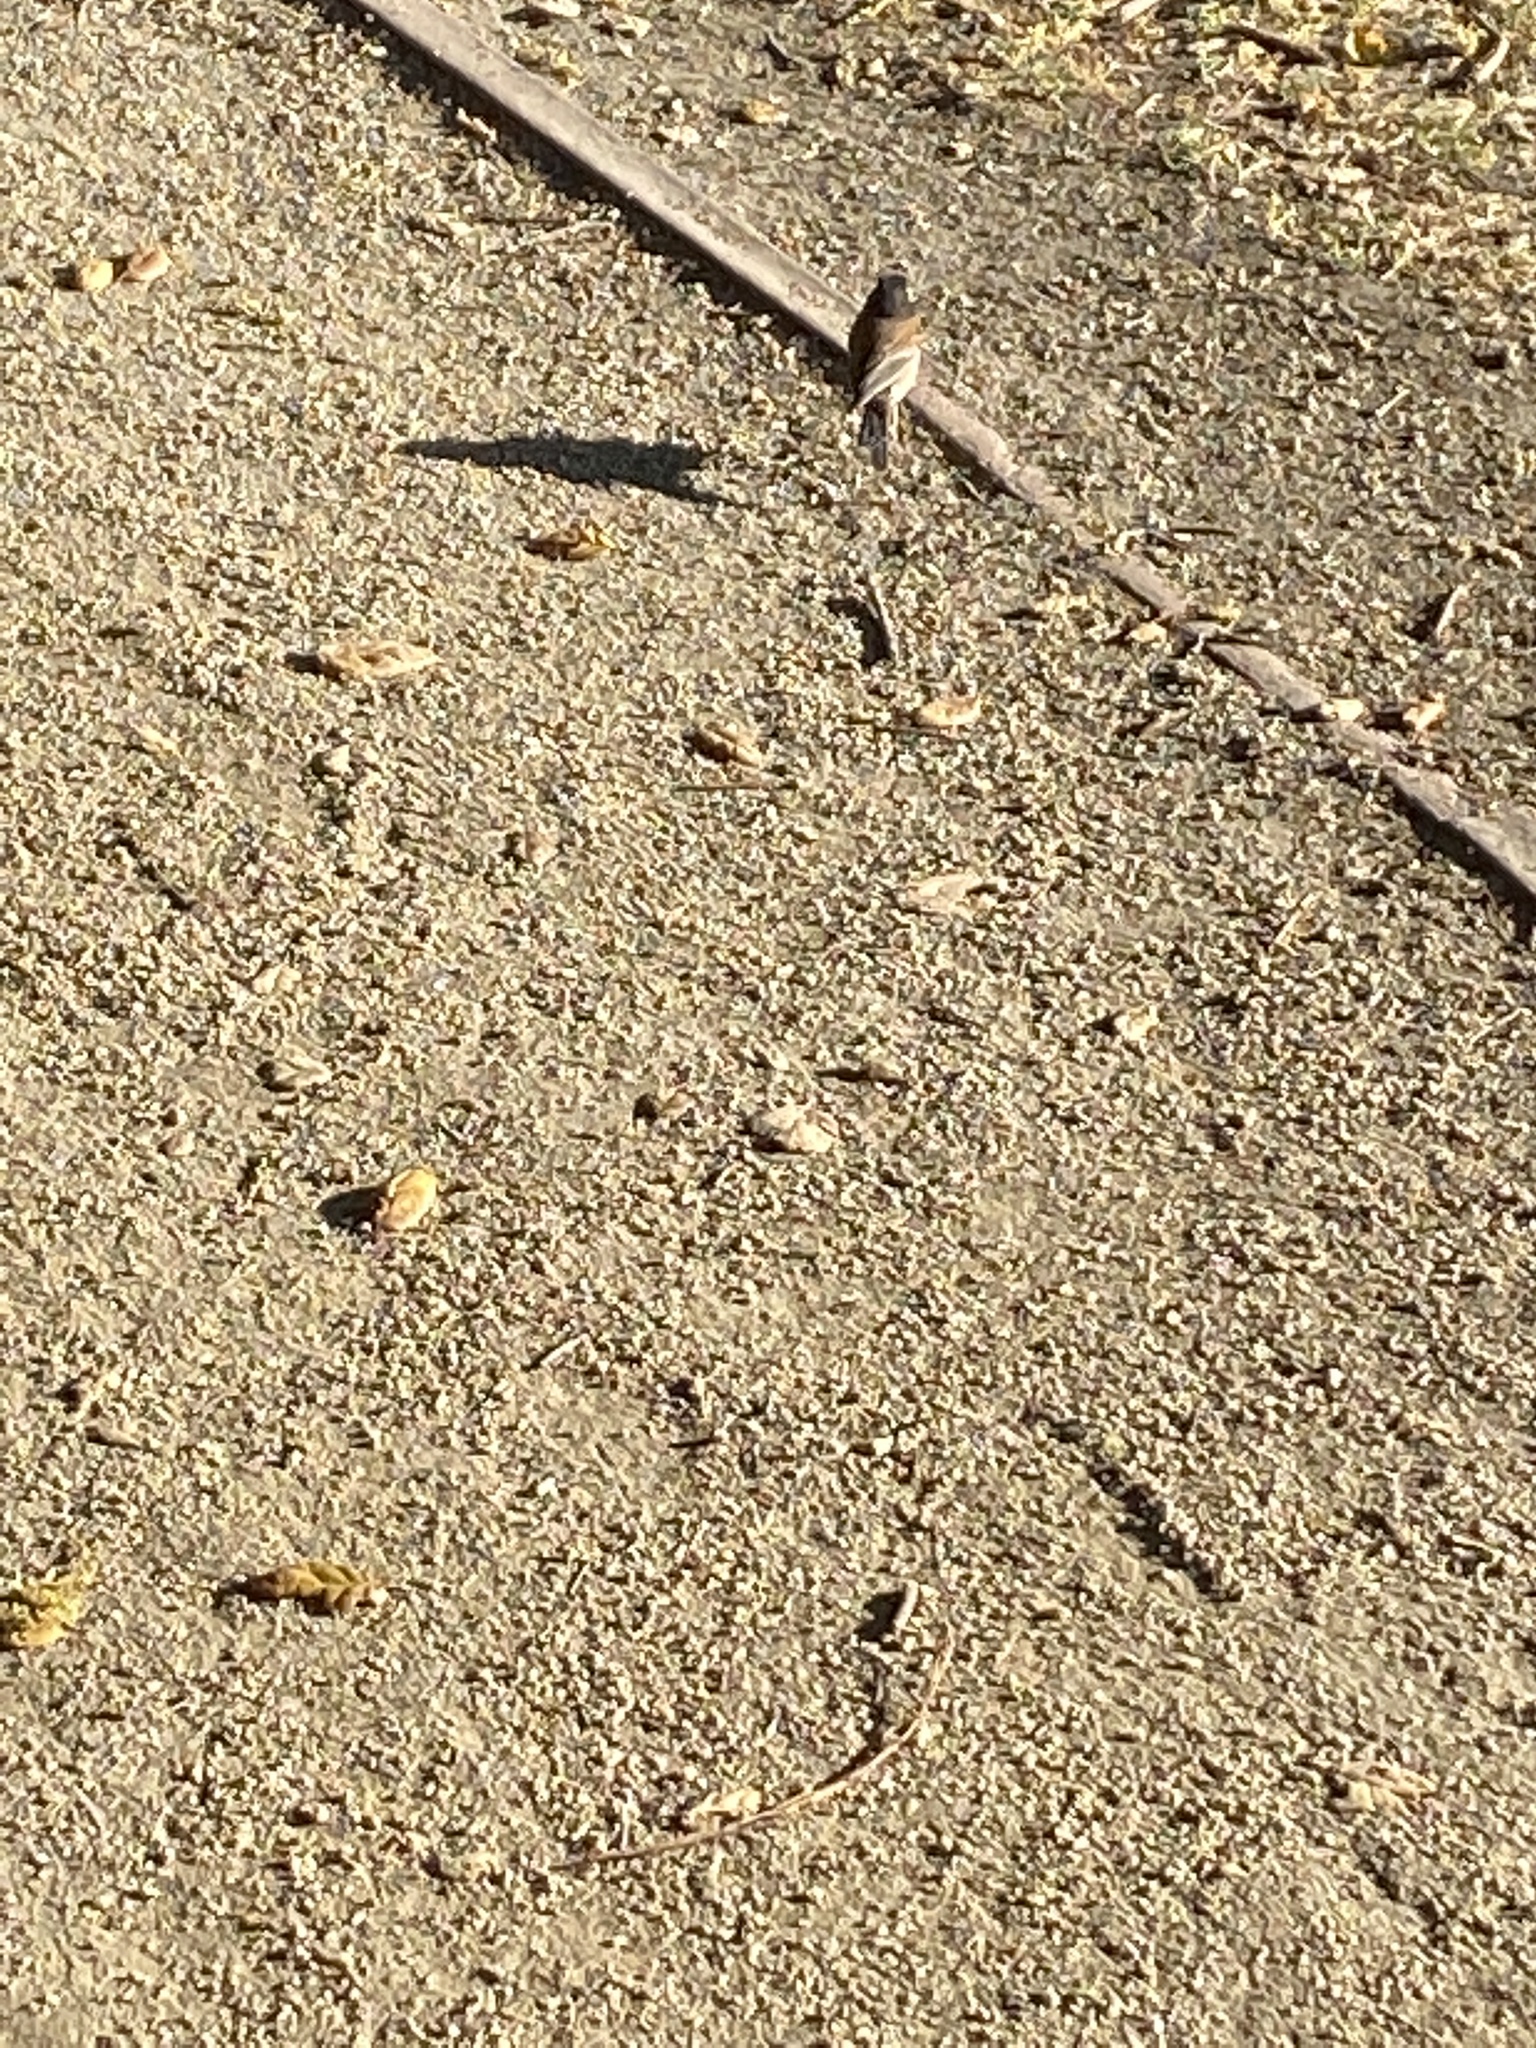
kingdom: Animalia
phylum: Chordata
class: Aves
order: Passeriformes
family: Passerellidae
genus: Junco
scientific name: Junco hyemalis
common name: Dark-eyed junco
